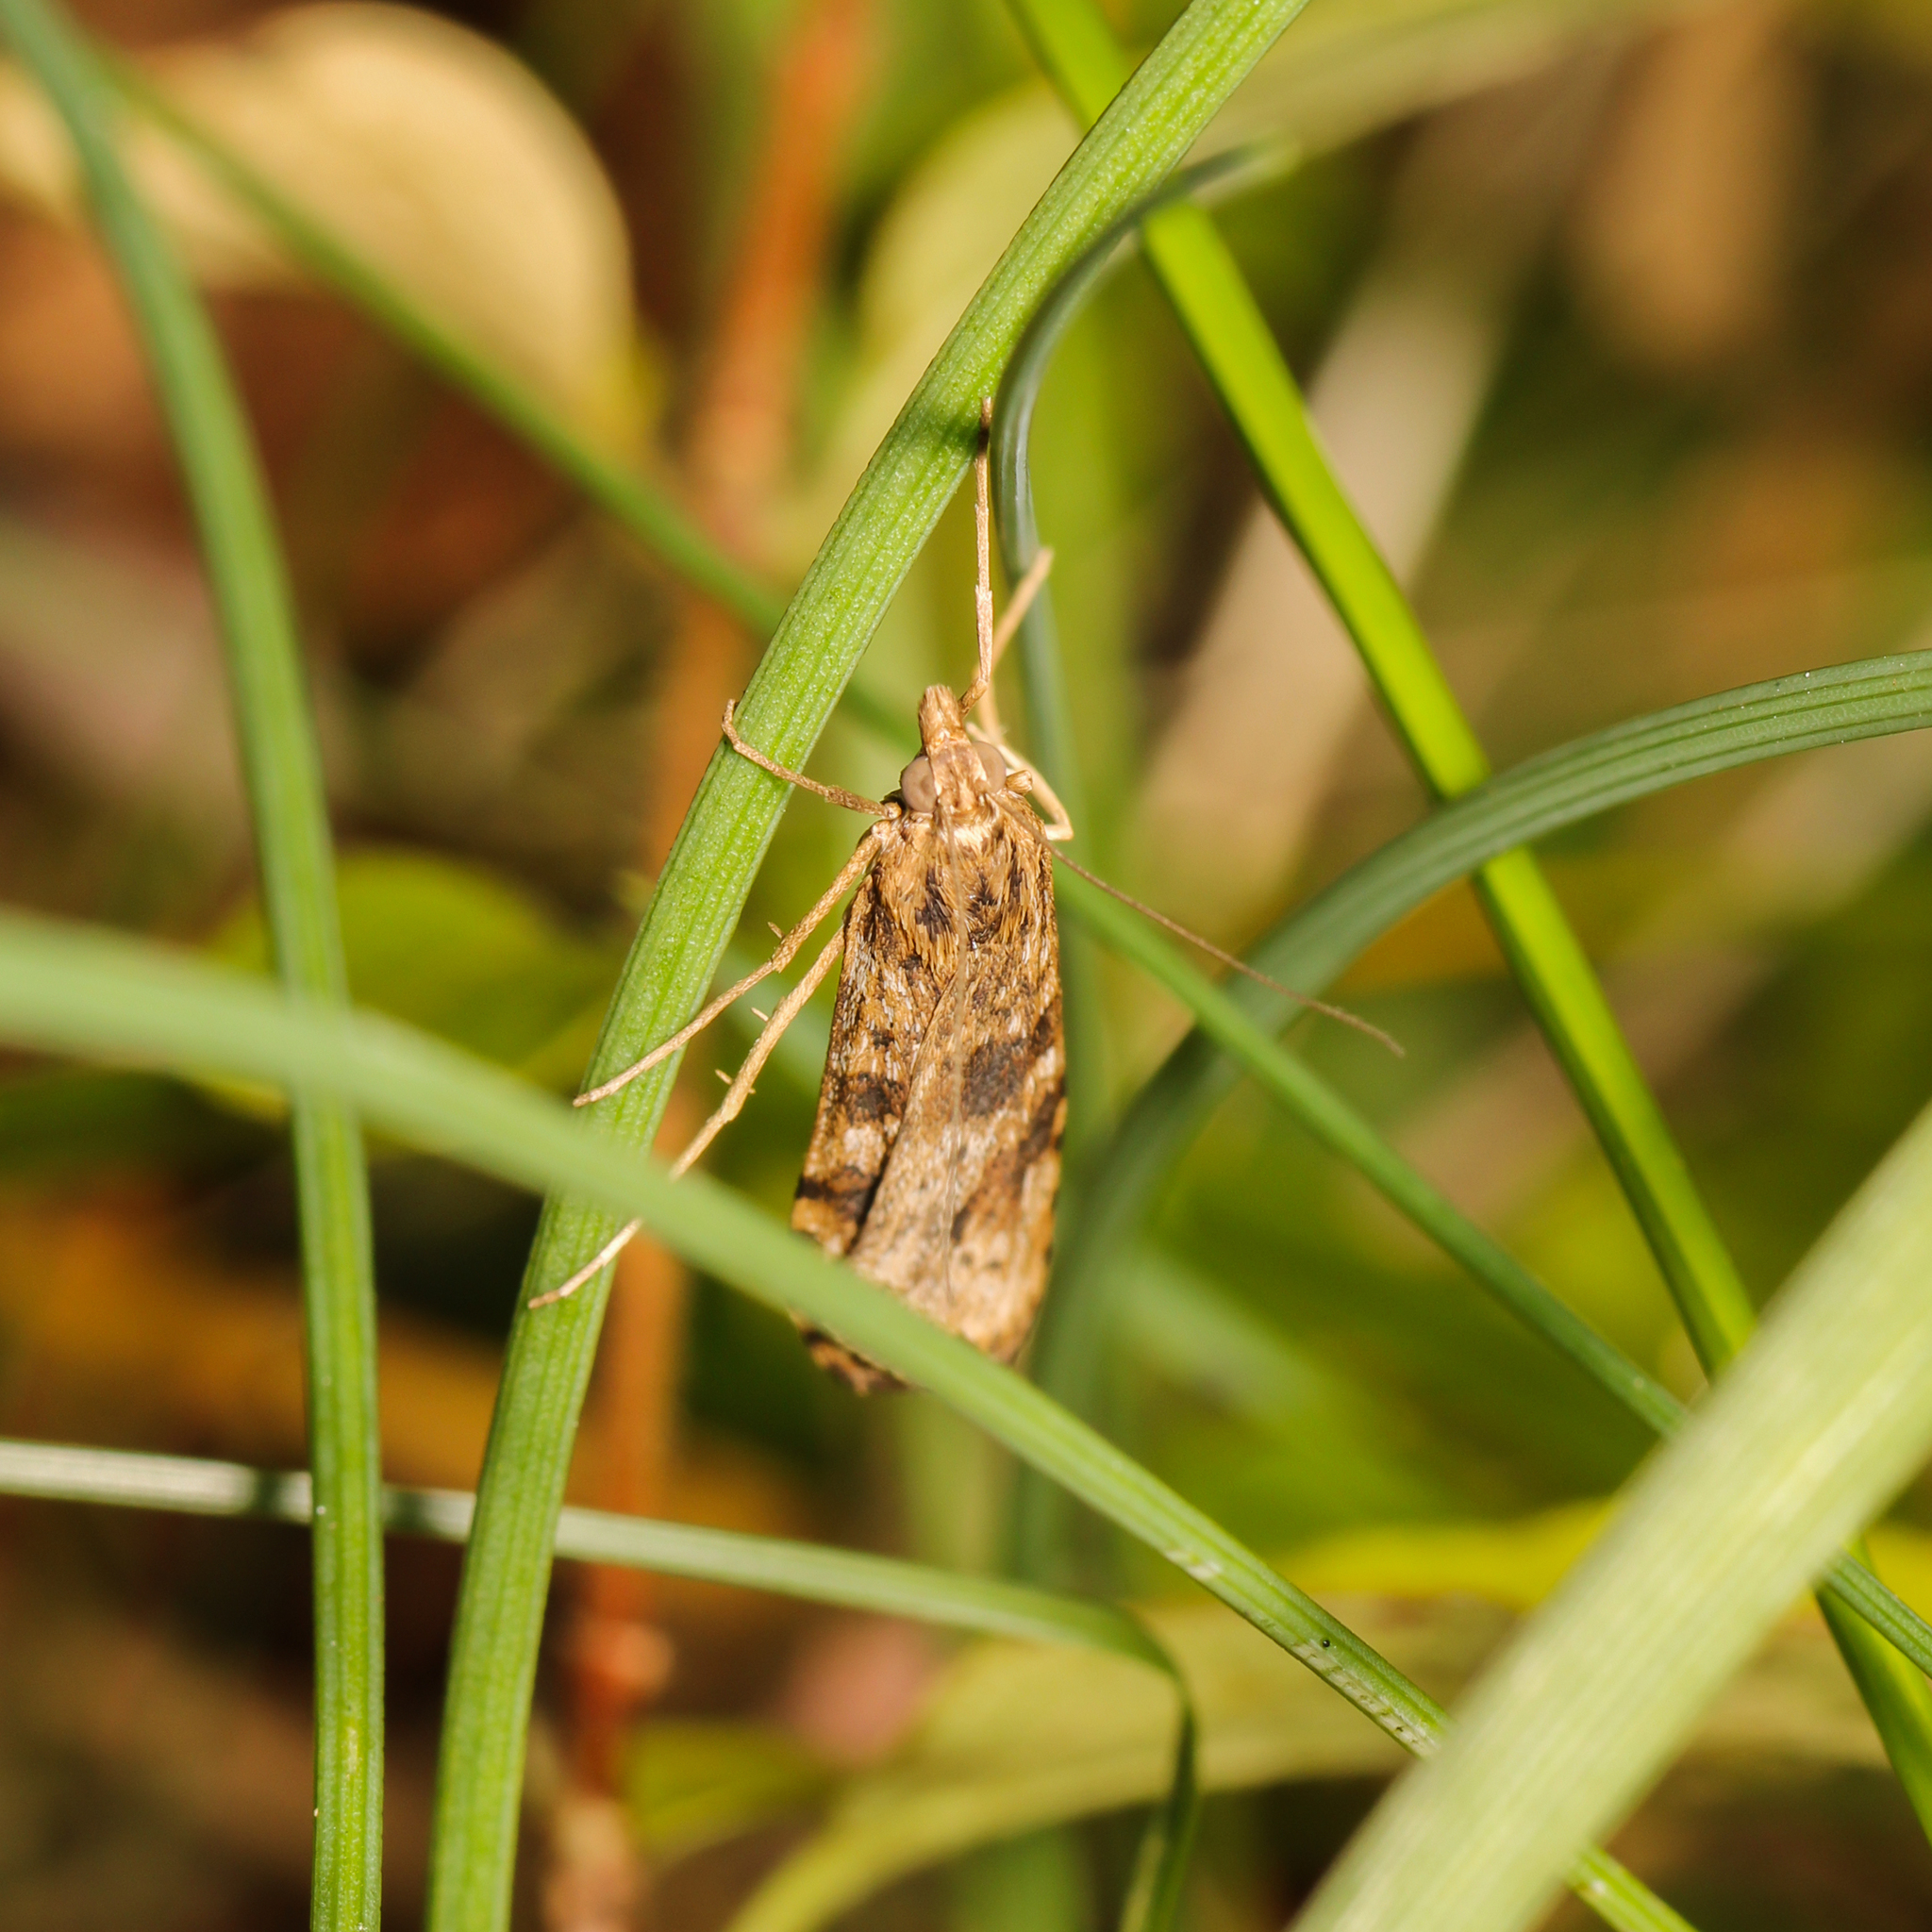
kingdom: Animalia
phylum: Arthropoda
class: Insecta
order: Lepidoptera
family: Crambidae
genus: Nomophila
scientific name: Nomophila nearctica
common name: American rush veneer
